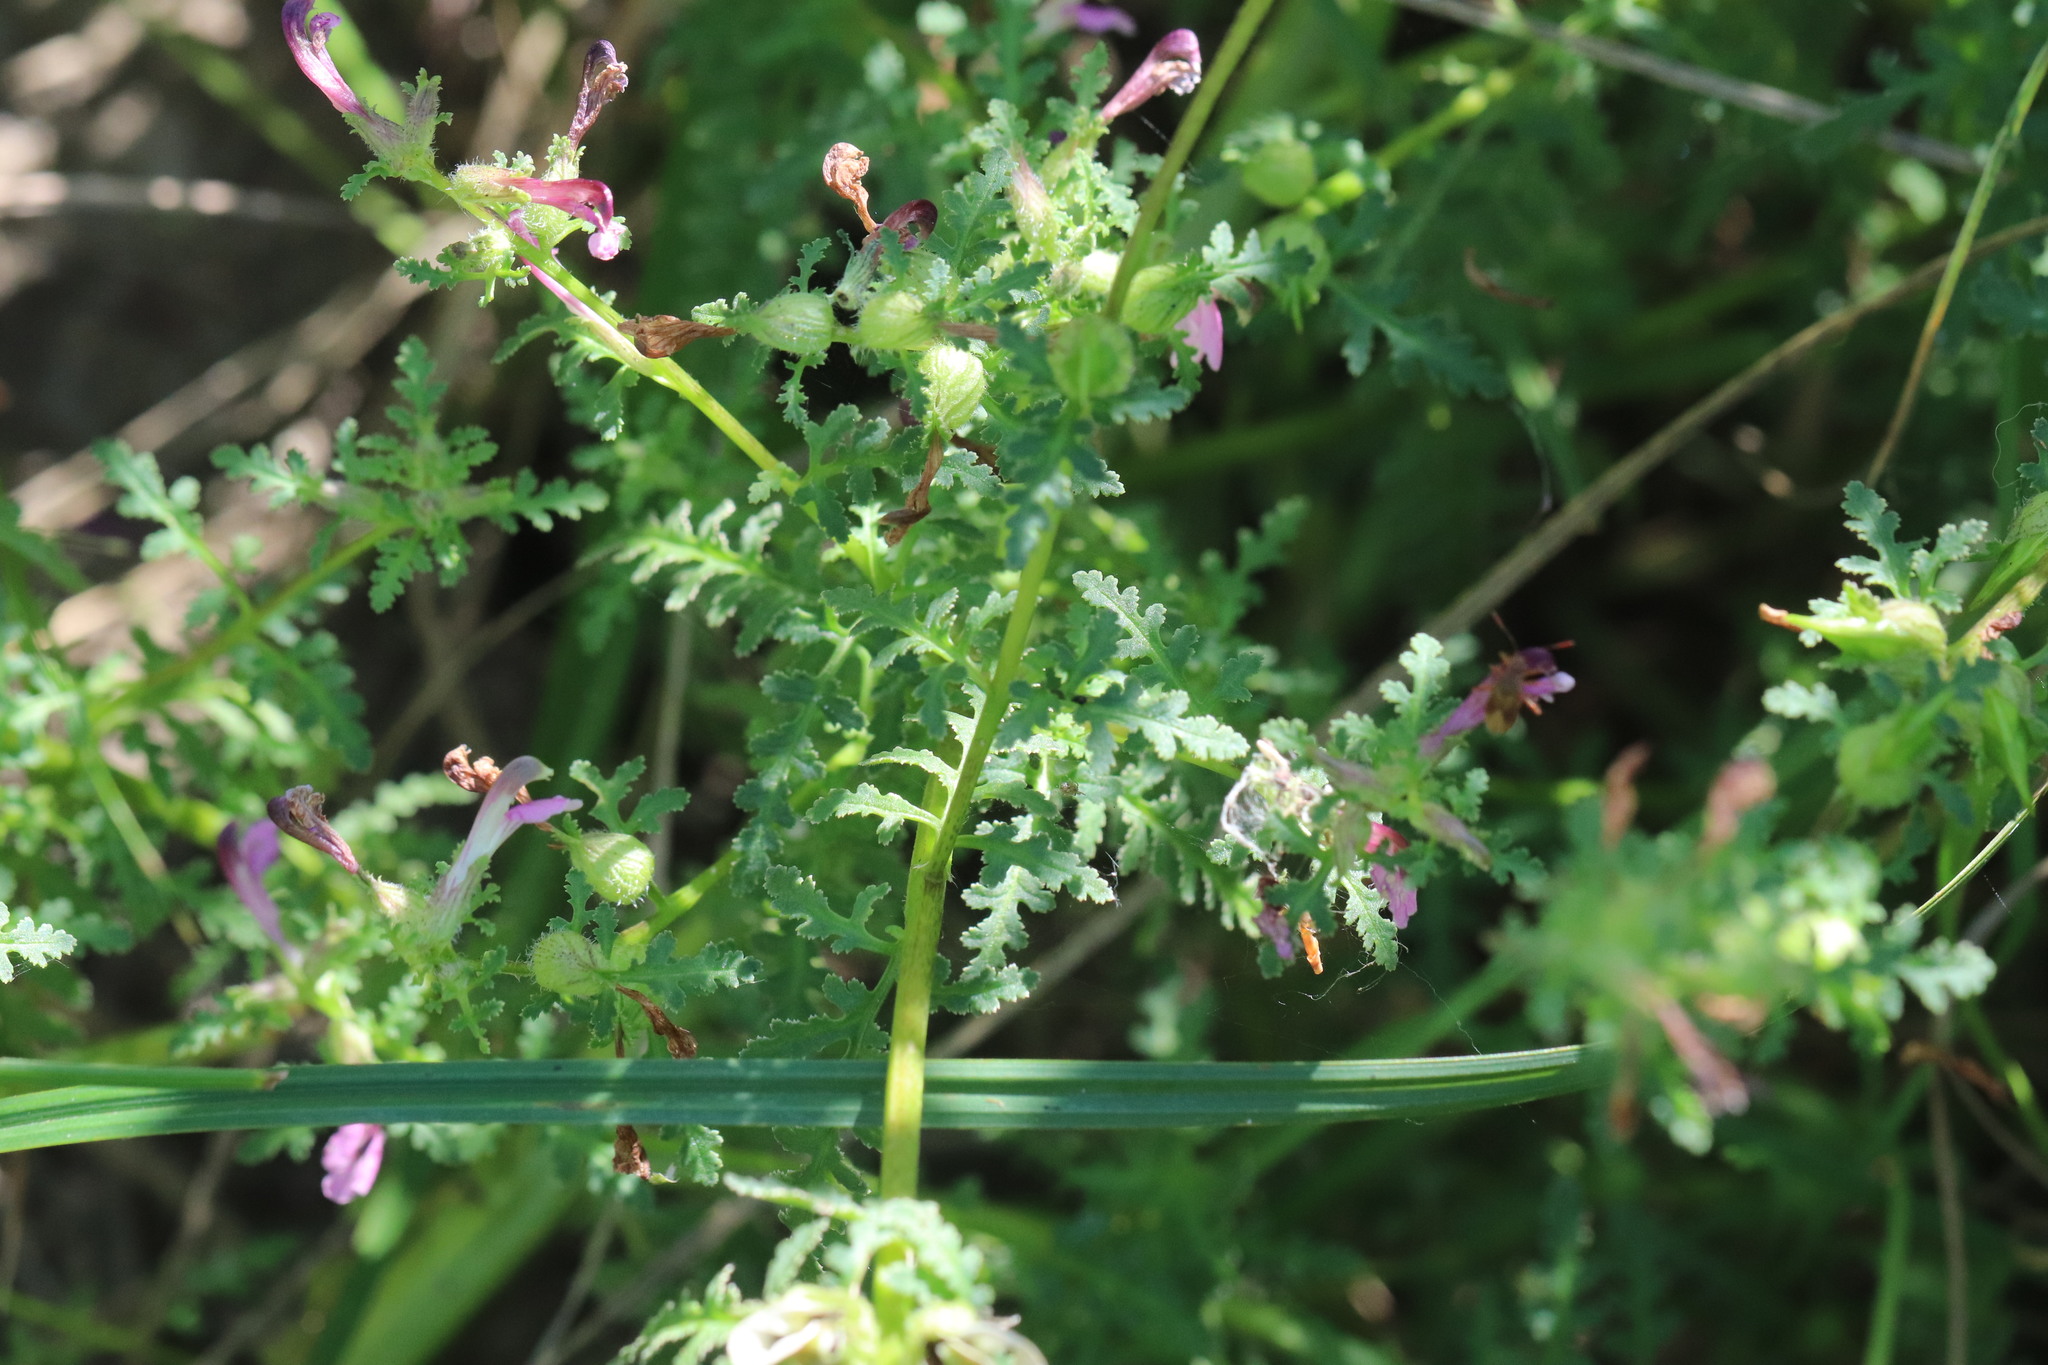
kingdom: Plantae
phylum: Tracheophyta
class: Magnoliopsida
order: Lamiales
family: Orobanchaceae
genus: Pedicularis
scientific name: Pedicularis karoi
